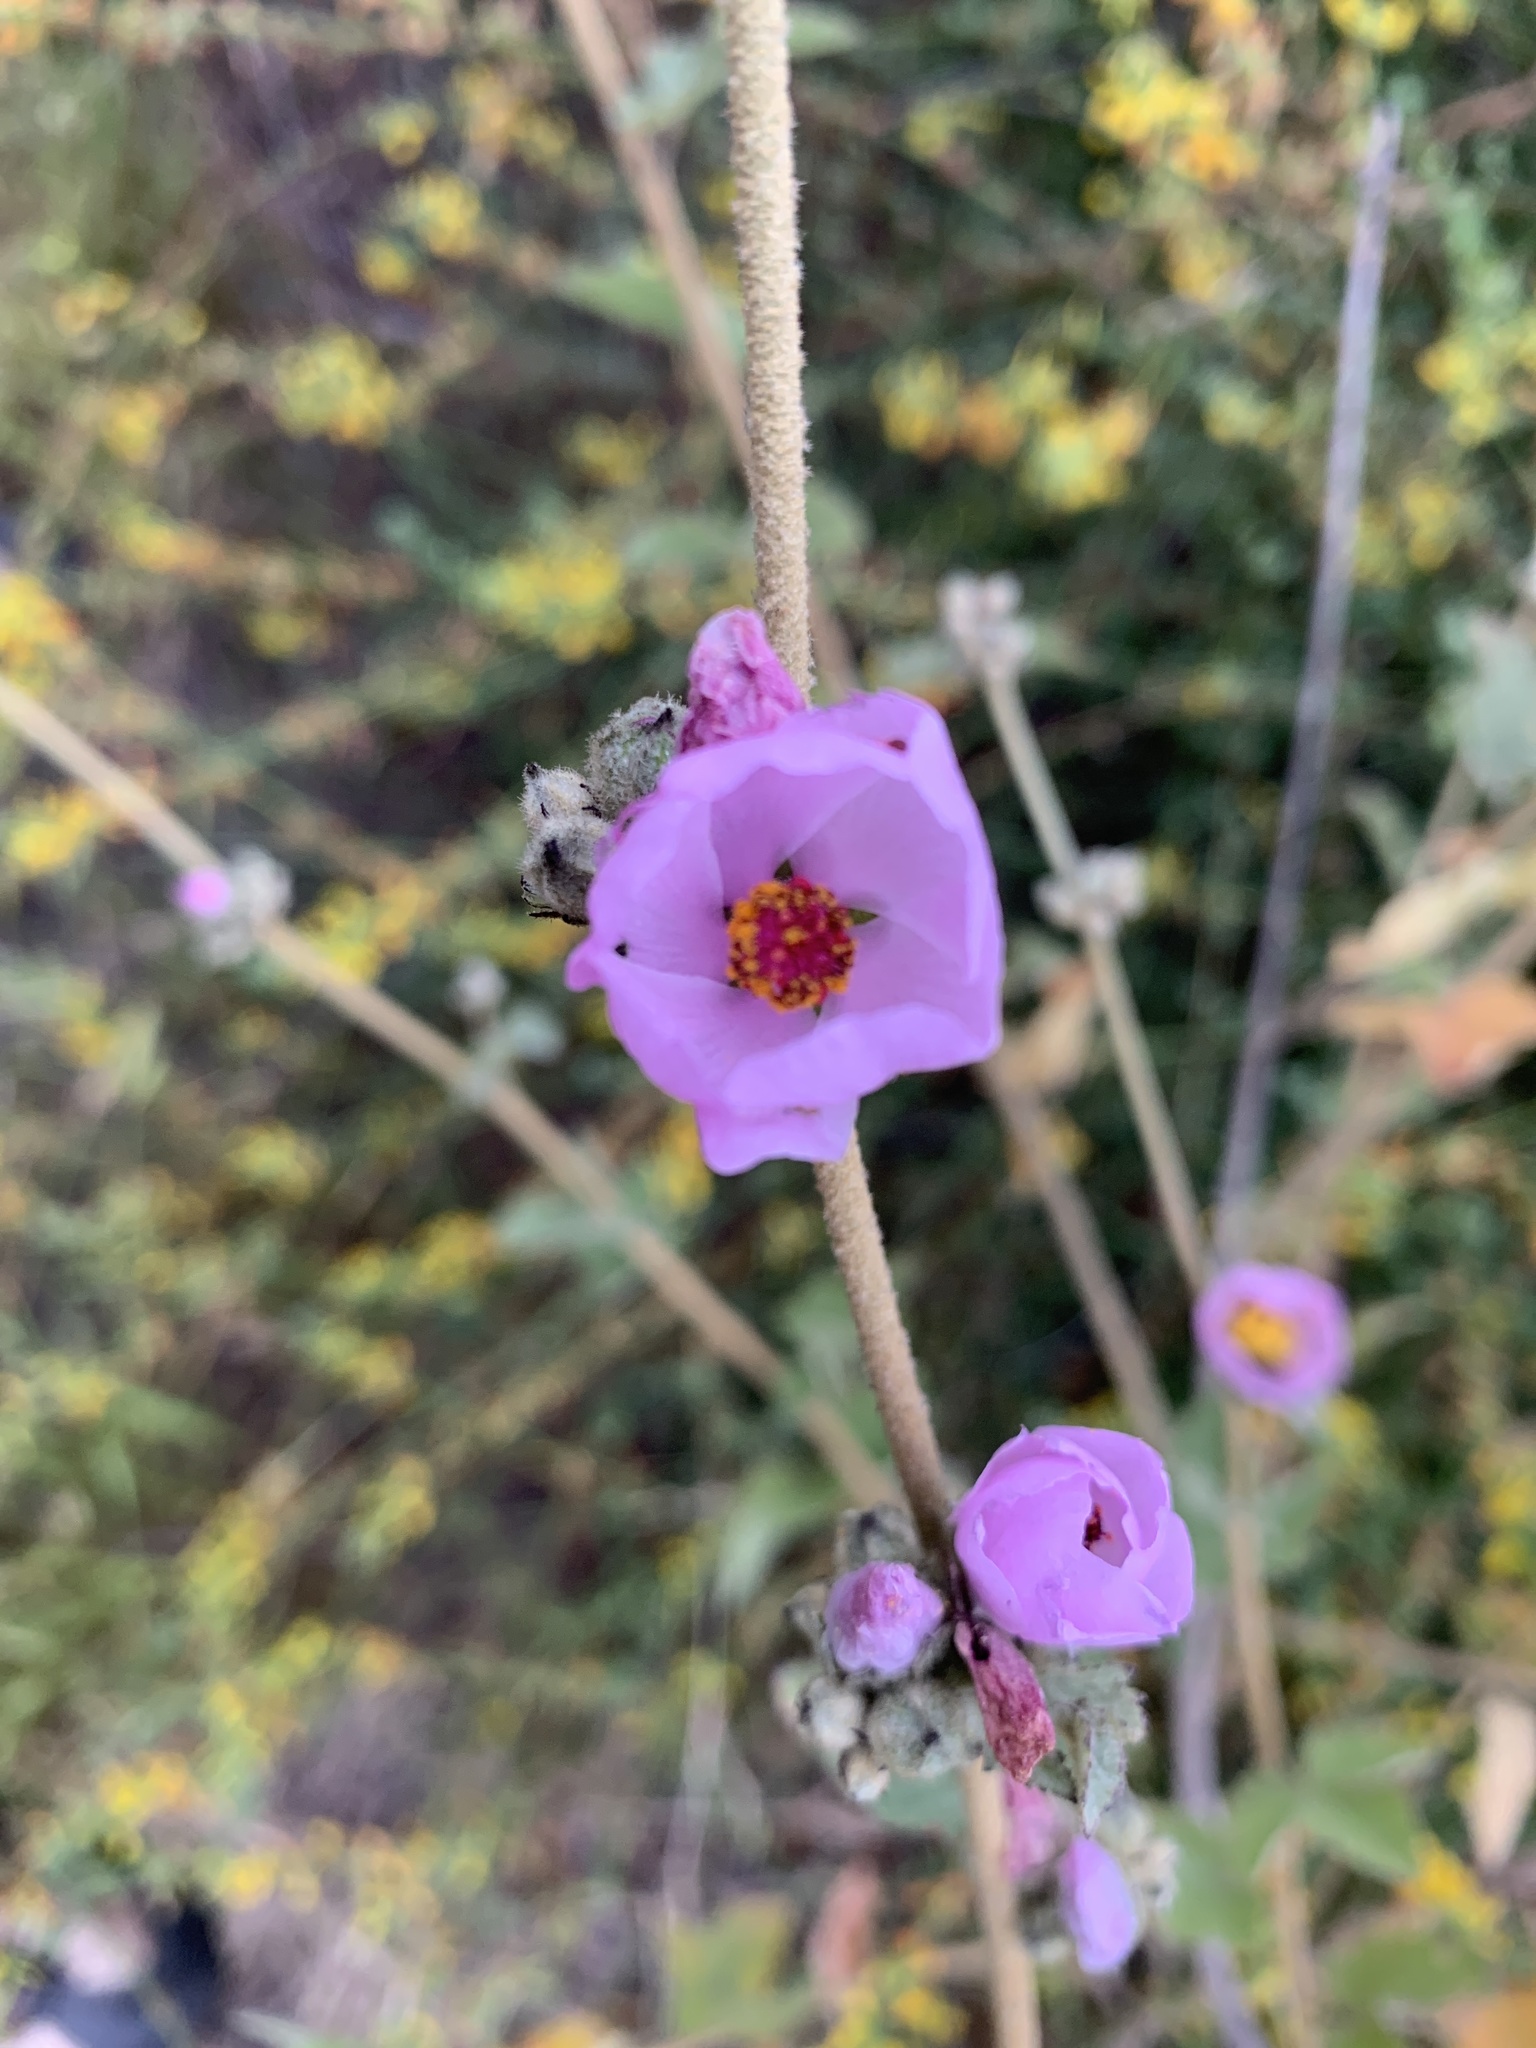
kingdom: Plantae
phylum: Tracheophyta
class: Magnoliopsida
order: Malvales
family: Malvaceae
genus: Malacothamnus
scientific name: Malacothamnus fasciculatus
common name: Sant cruz island bush-mallow
